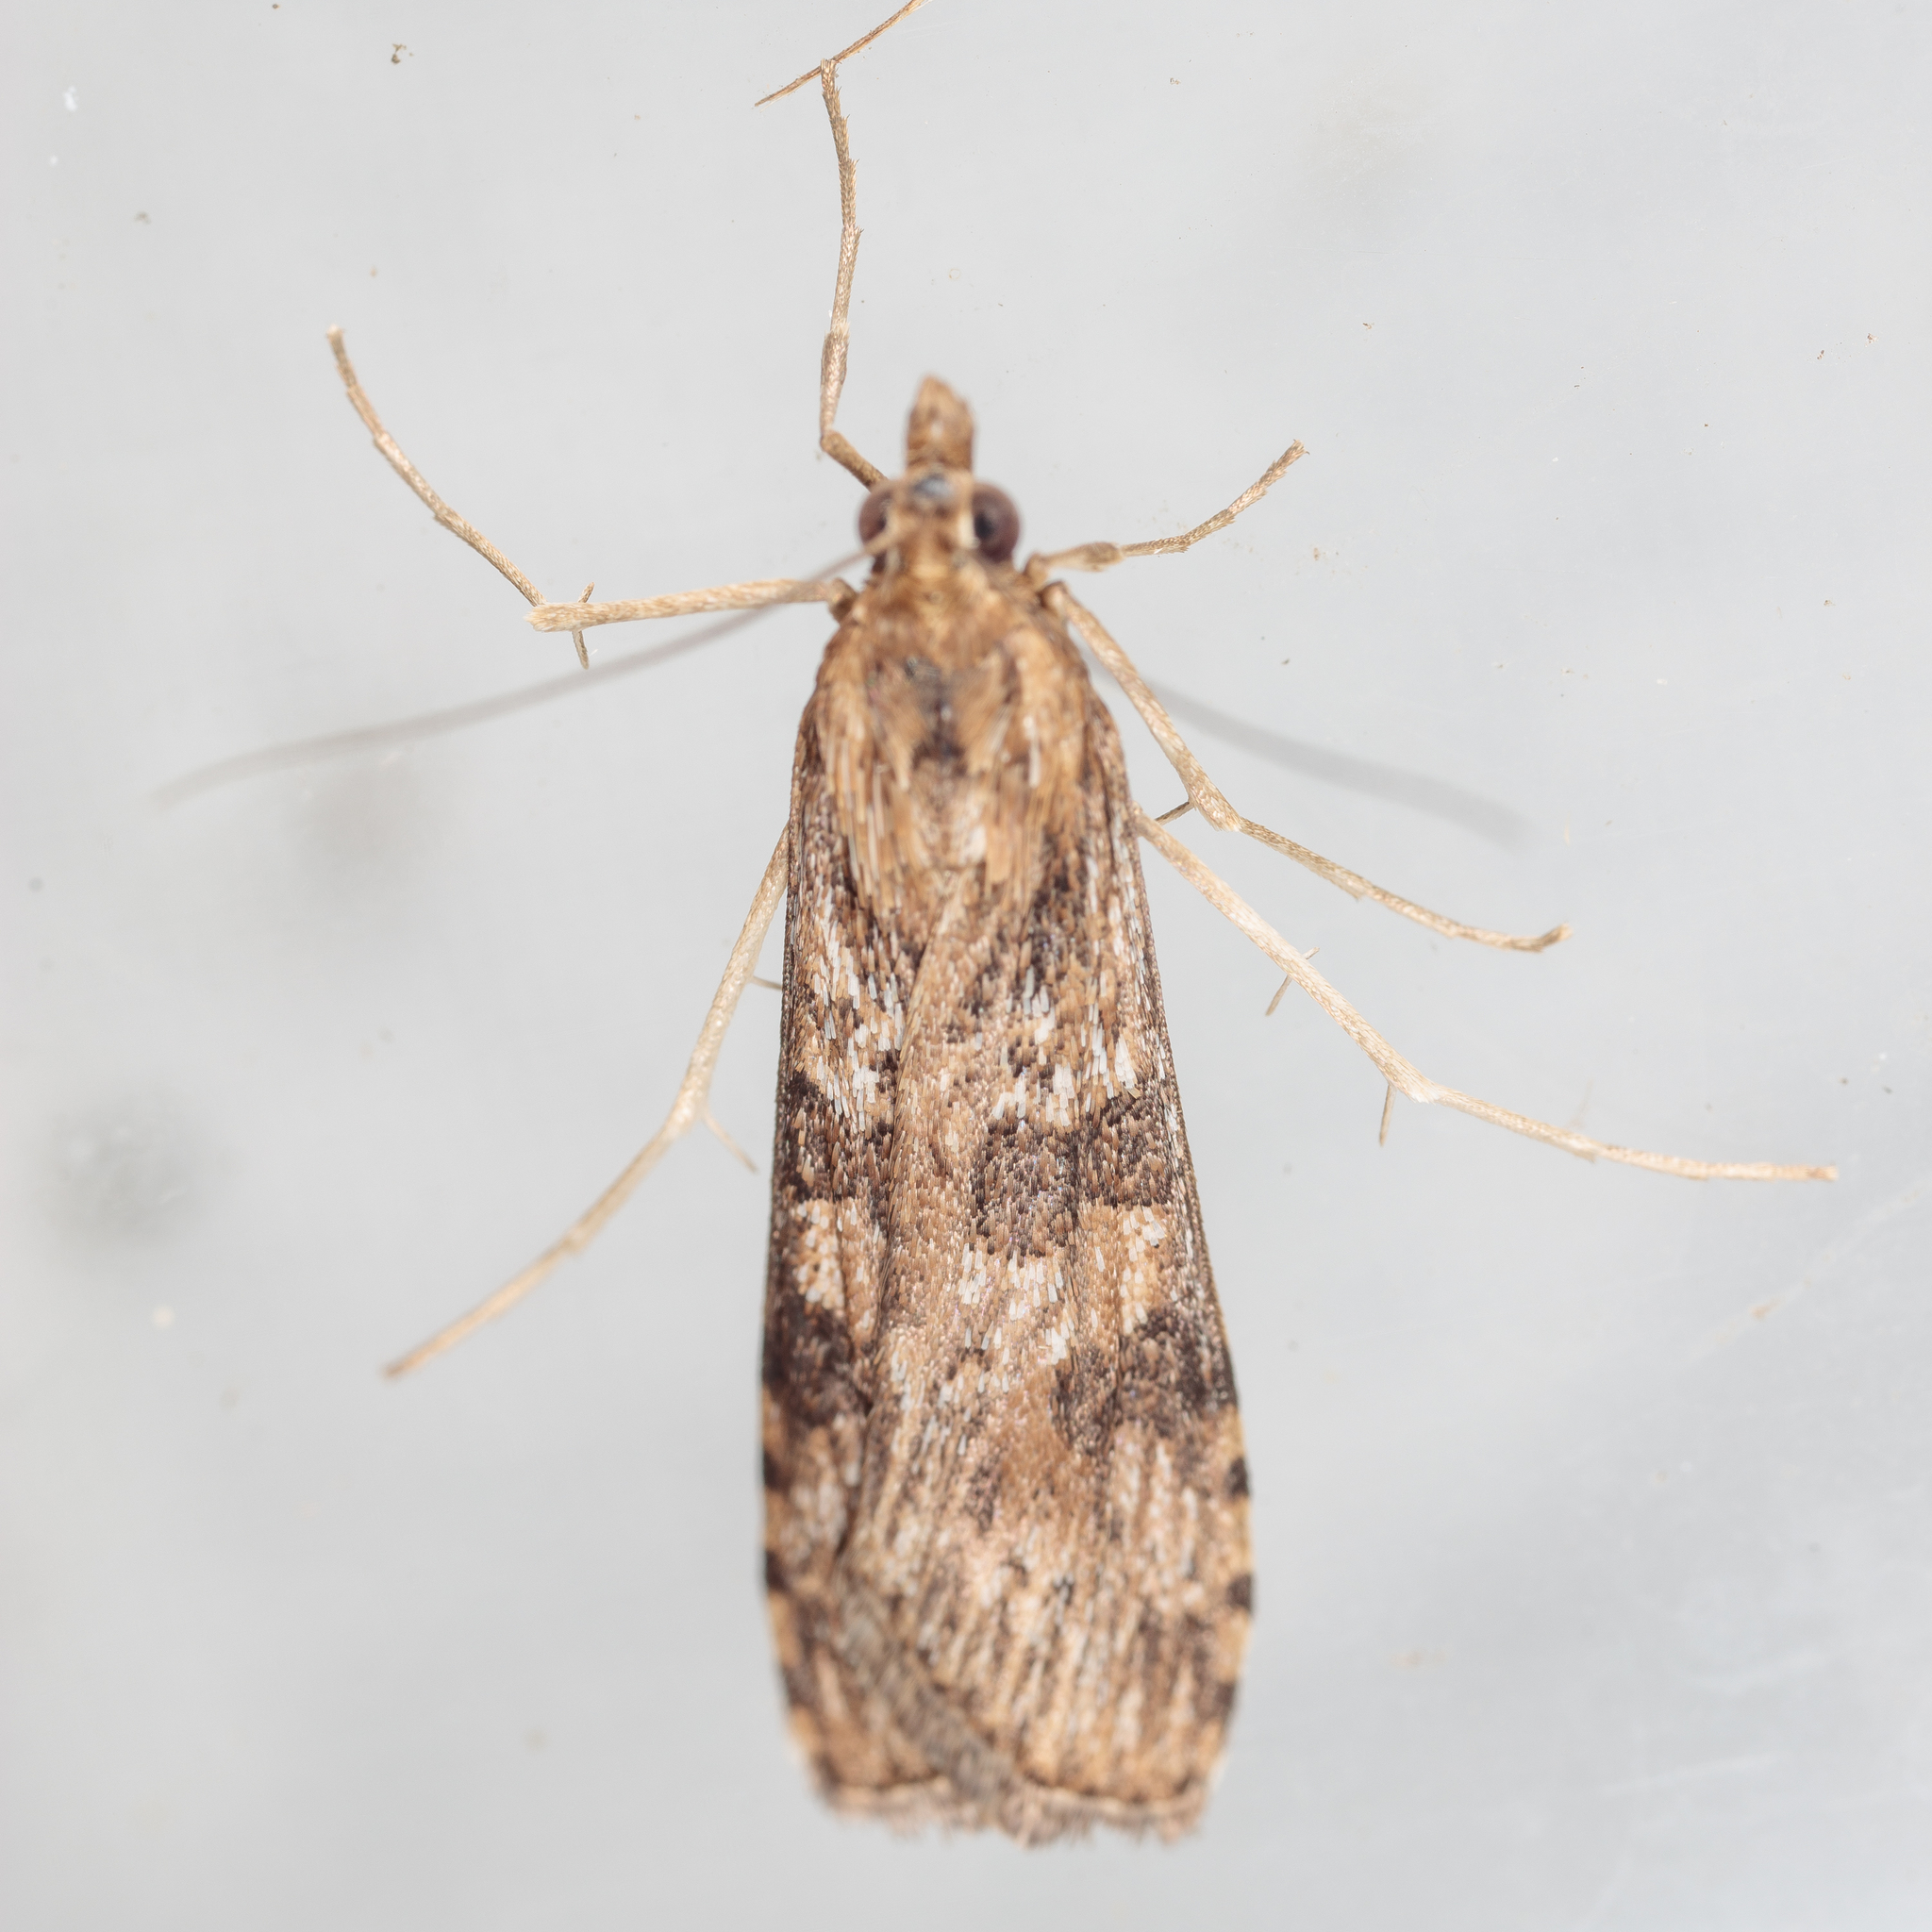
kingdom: Animalia
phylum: Arthropoda
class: Insecta
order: Lepidoptera
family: Crambidae
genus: Nomophila
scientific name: Nomophila nearctica
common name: American rush veneer
